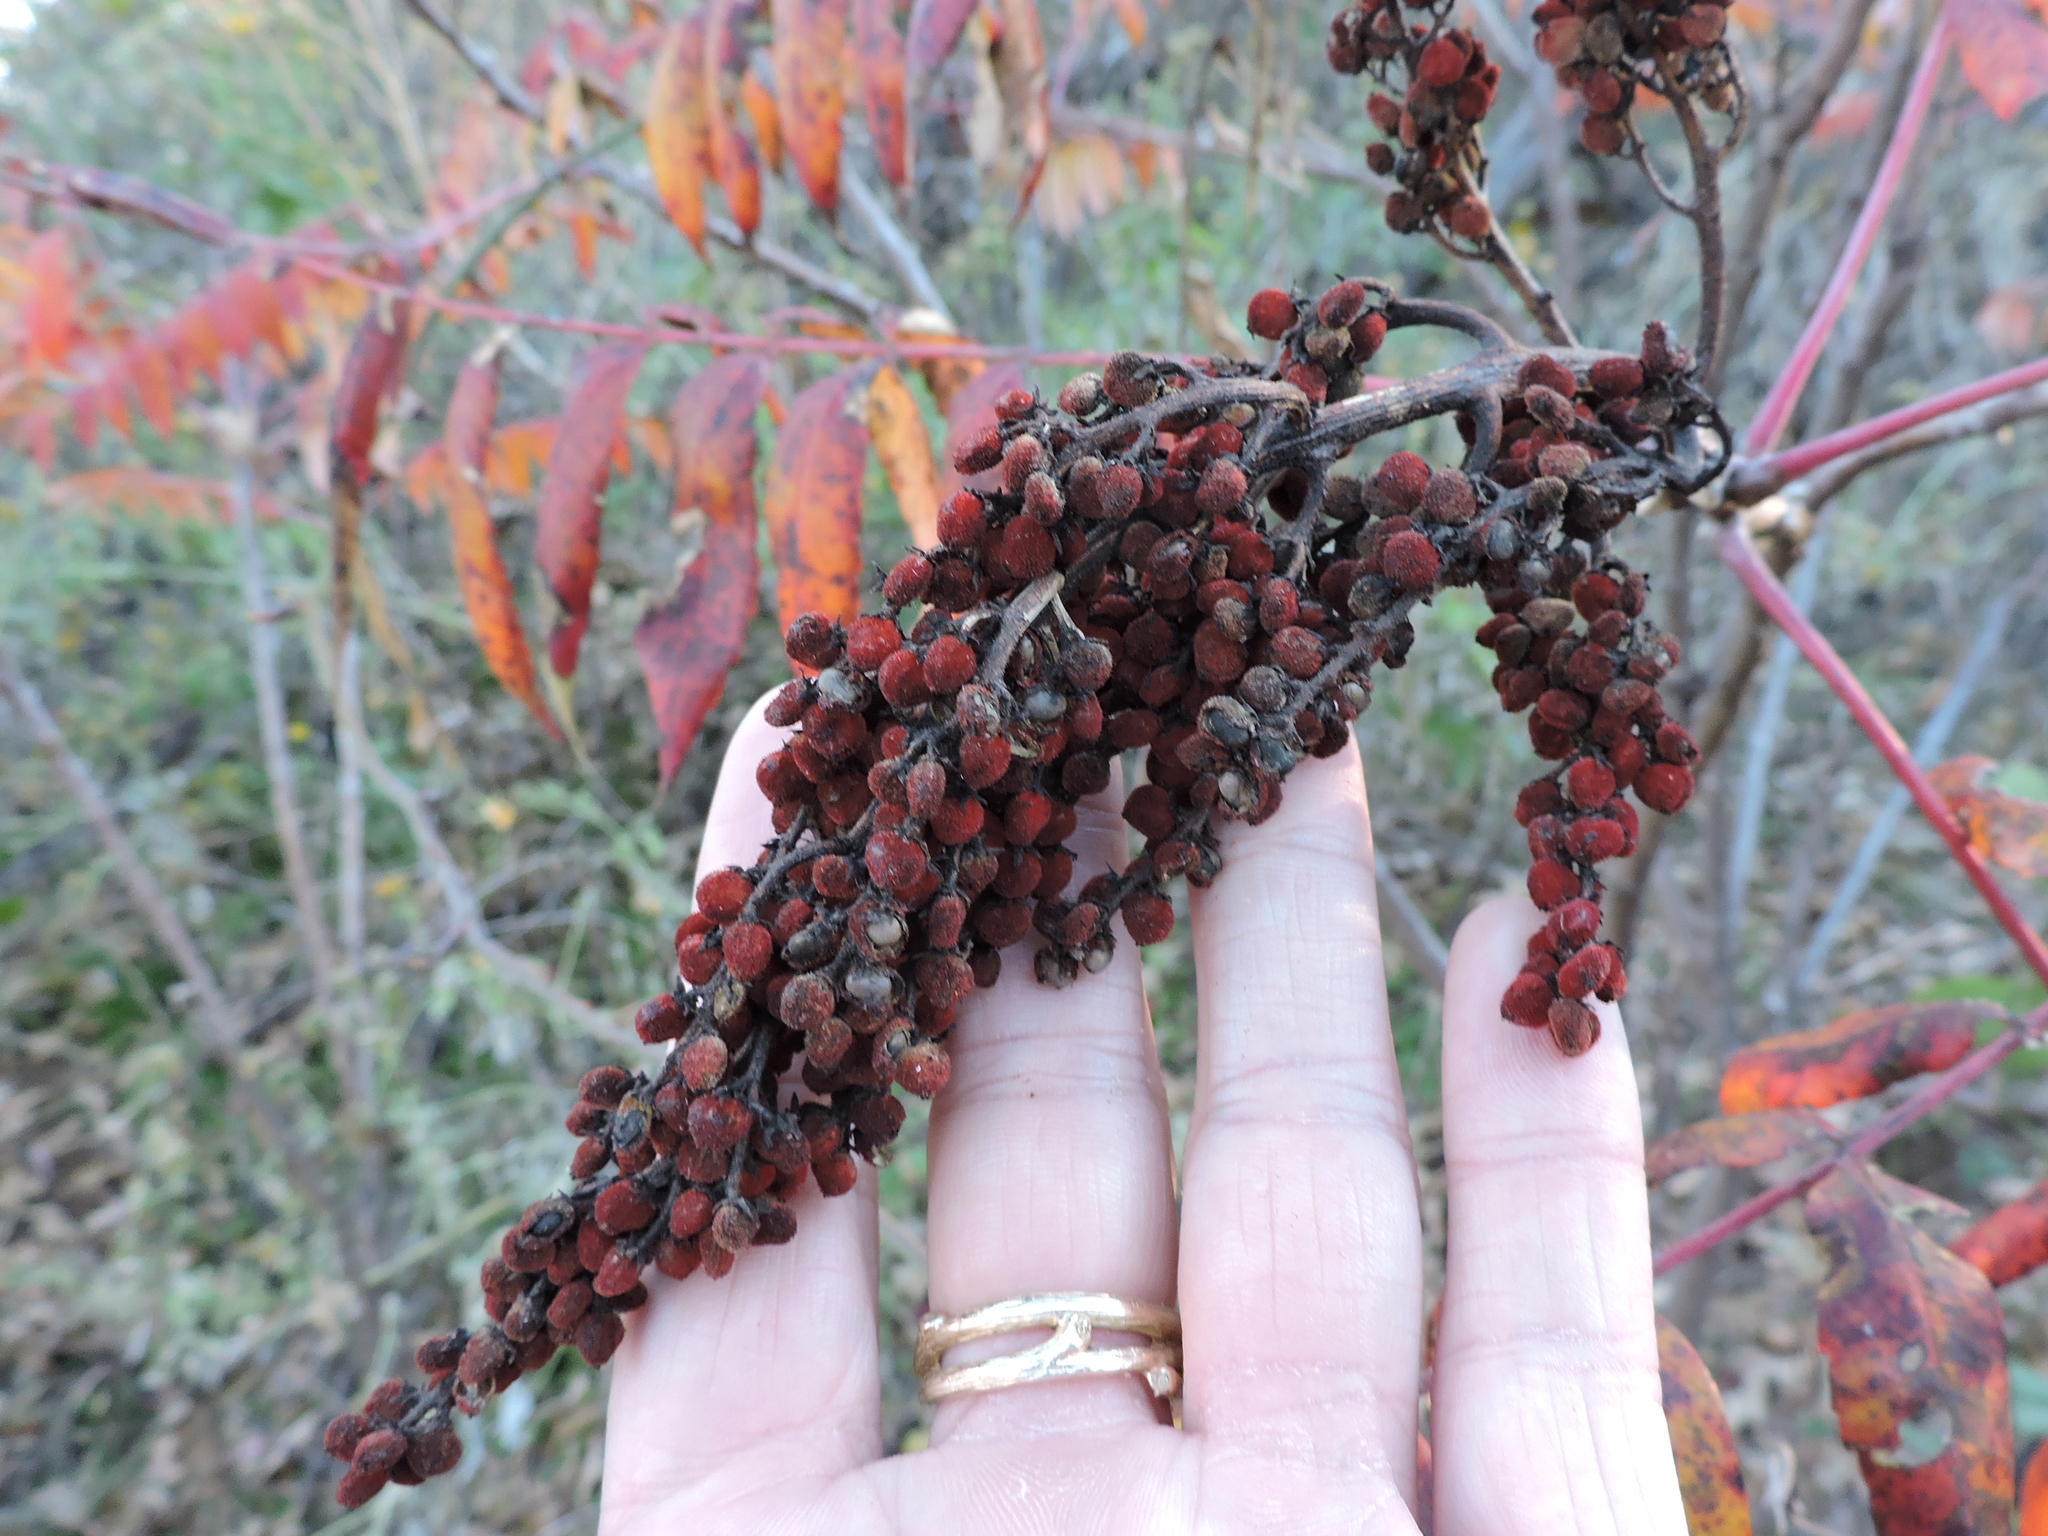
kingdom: Plantae
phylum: Tracheophyta
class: Magnoliopsida
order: Sapindales
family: Anacardiaceae
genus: Rhus
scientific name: Rhus glabra
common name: Scarlet sumac
